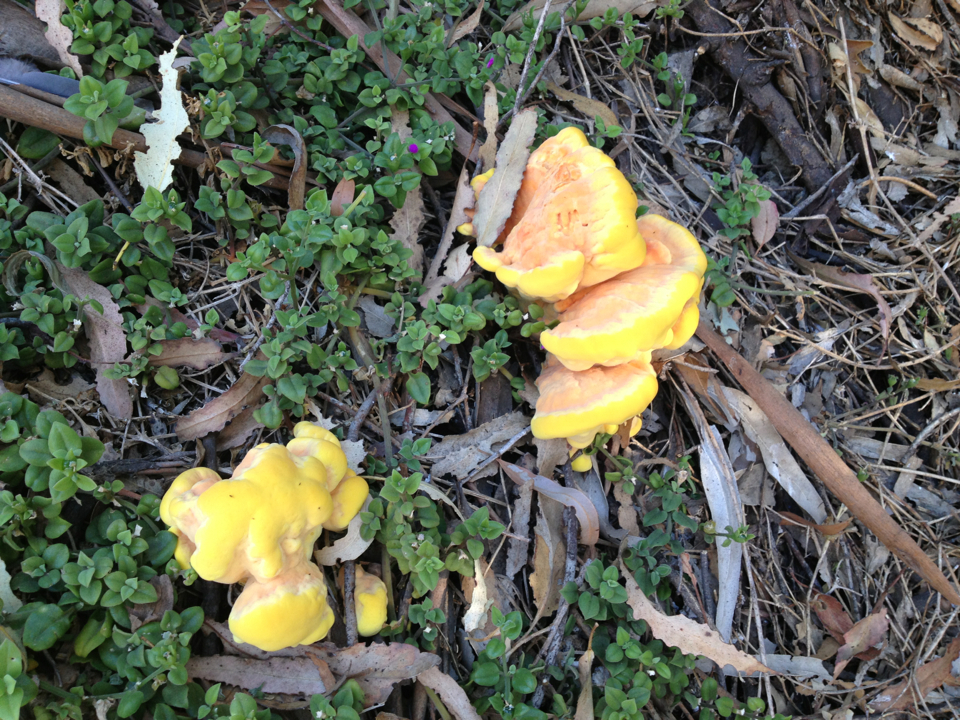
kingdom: Fungi
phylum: Basidiomycota
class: Agaricomycetes
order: Polyporales
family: Laetiporaceae
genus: Laetiporus
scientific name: Laetiporus gilbertsonii
